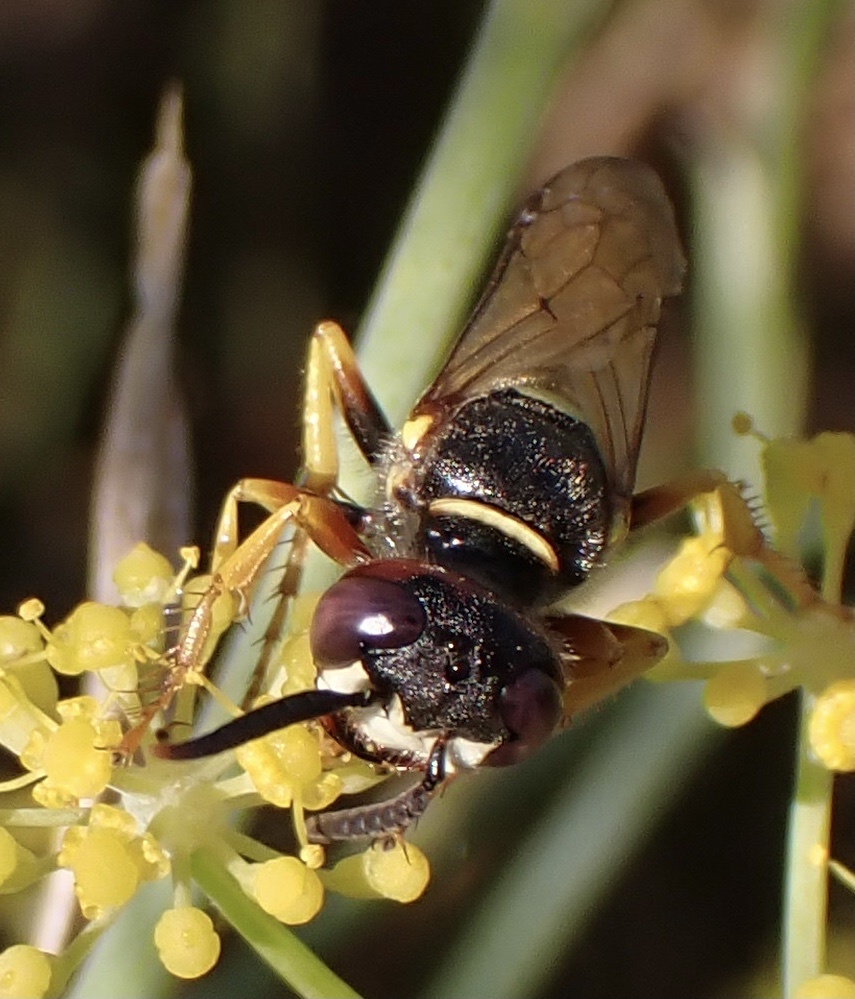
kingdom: Animalia
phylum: Arthropoda
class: Insecta
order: Hymenoptera
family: Crabronidae
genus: Philanthus
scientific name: Philanthus triangulum
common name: Bee wolf
